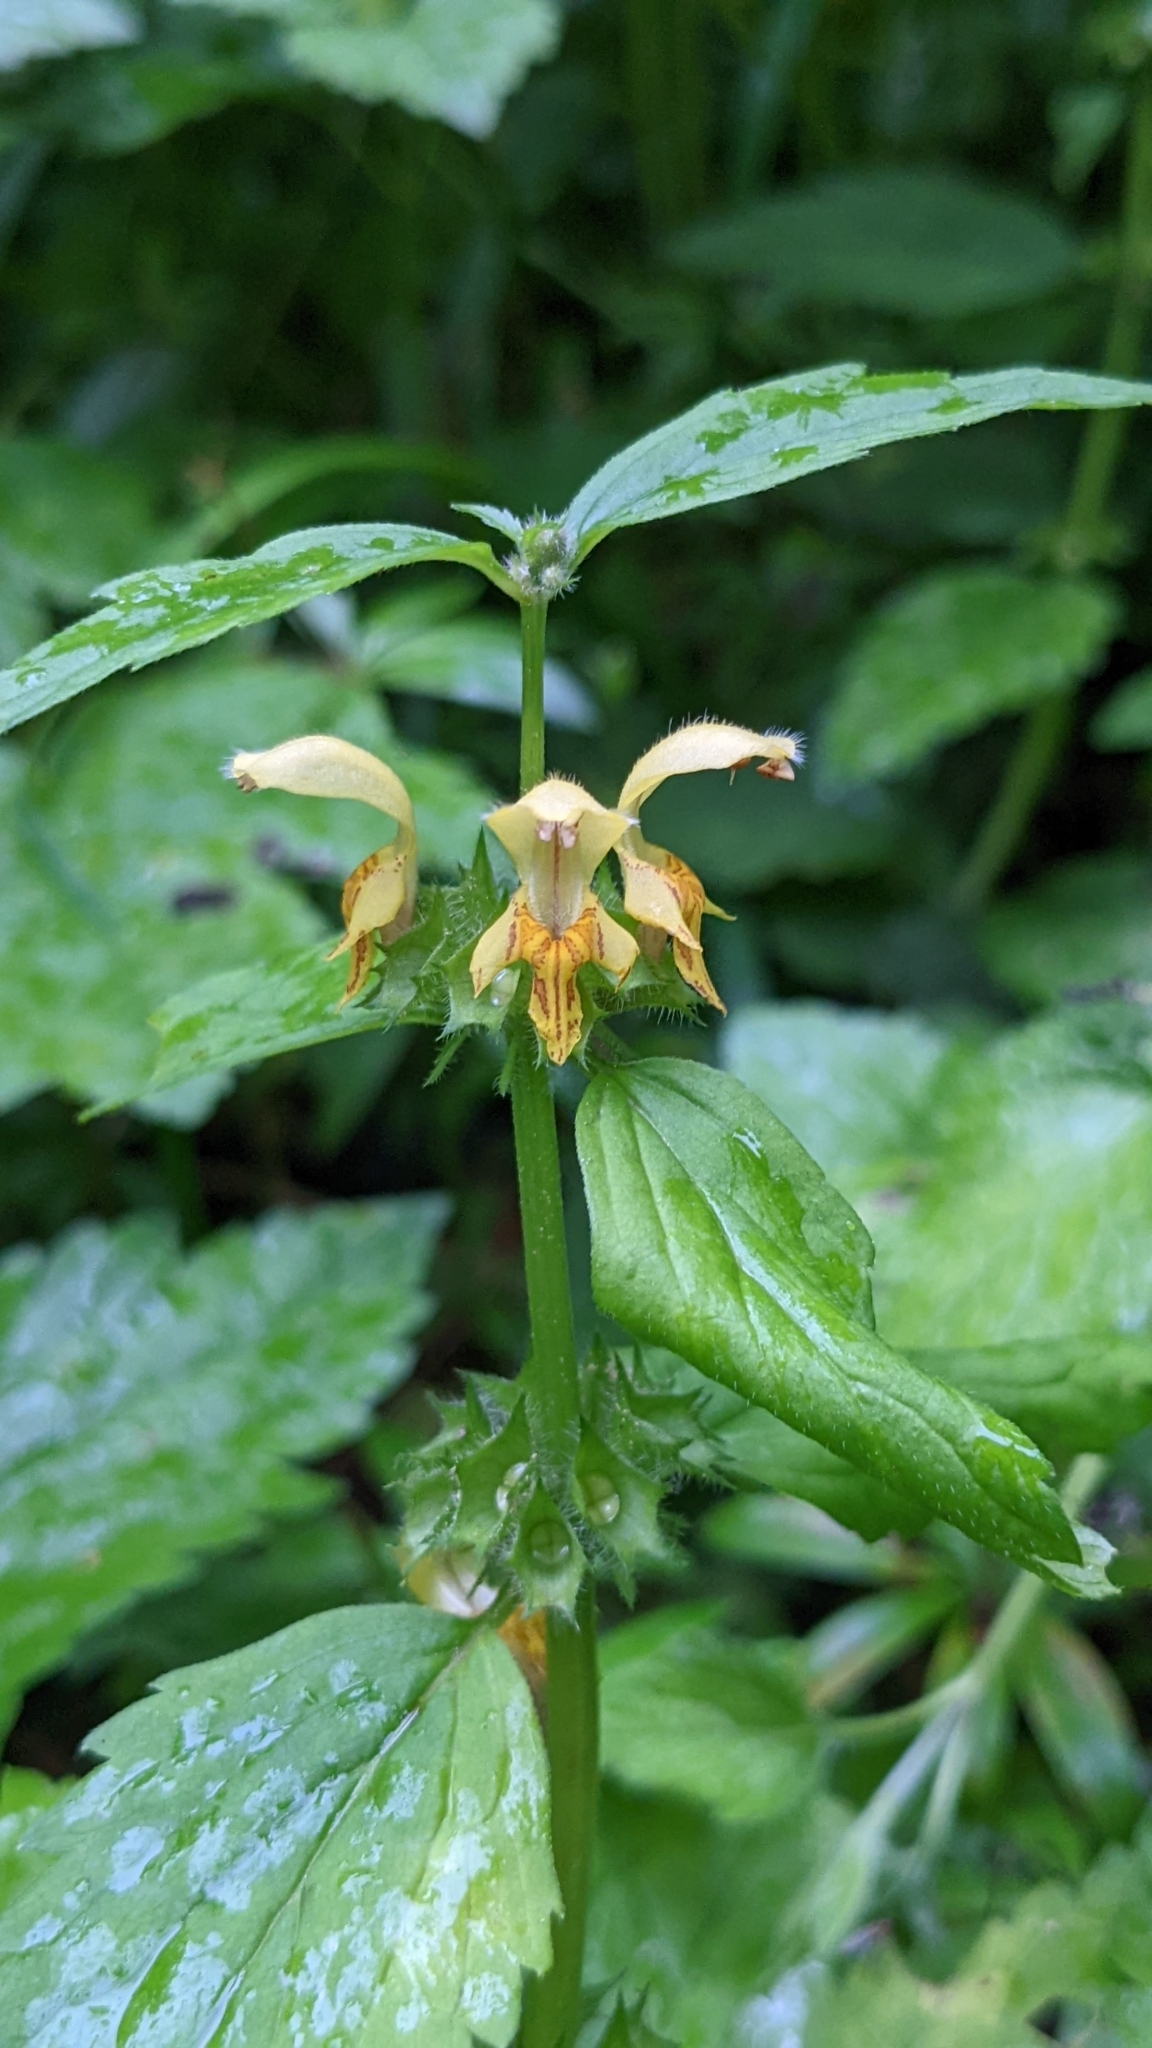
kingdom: Plantae
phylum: Tracheophyta
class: Magnoliopsida
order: Lamiales
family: Lamiaceae
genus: Lamium
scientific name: Lamium galeobdolon
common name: Yellow archangel
